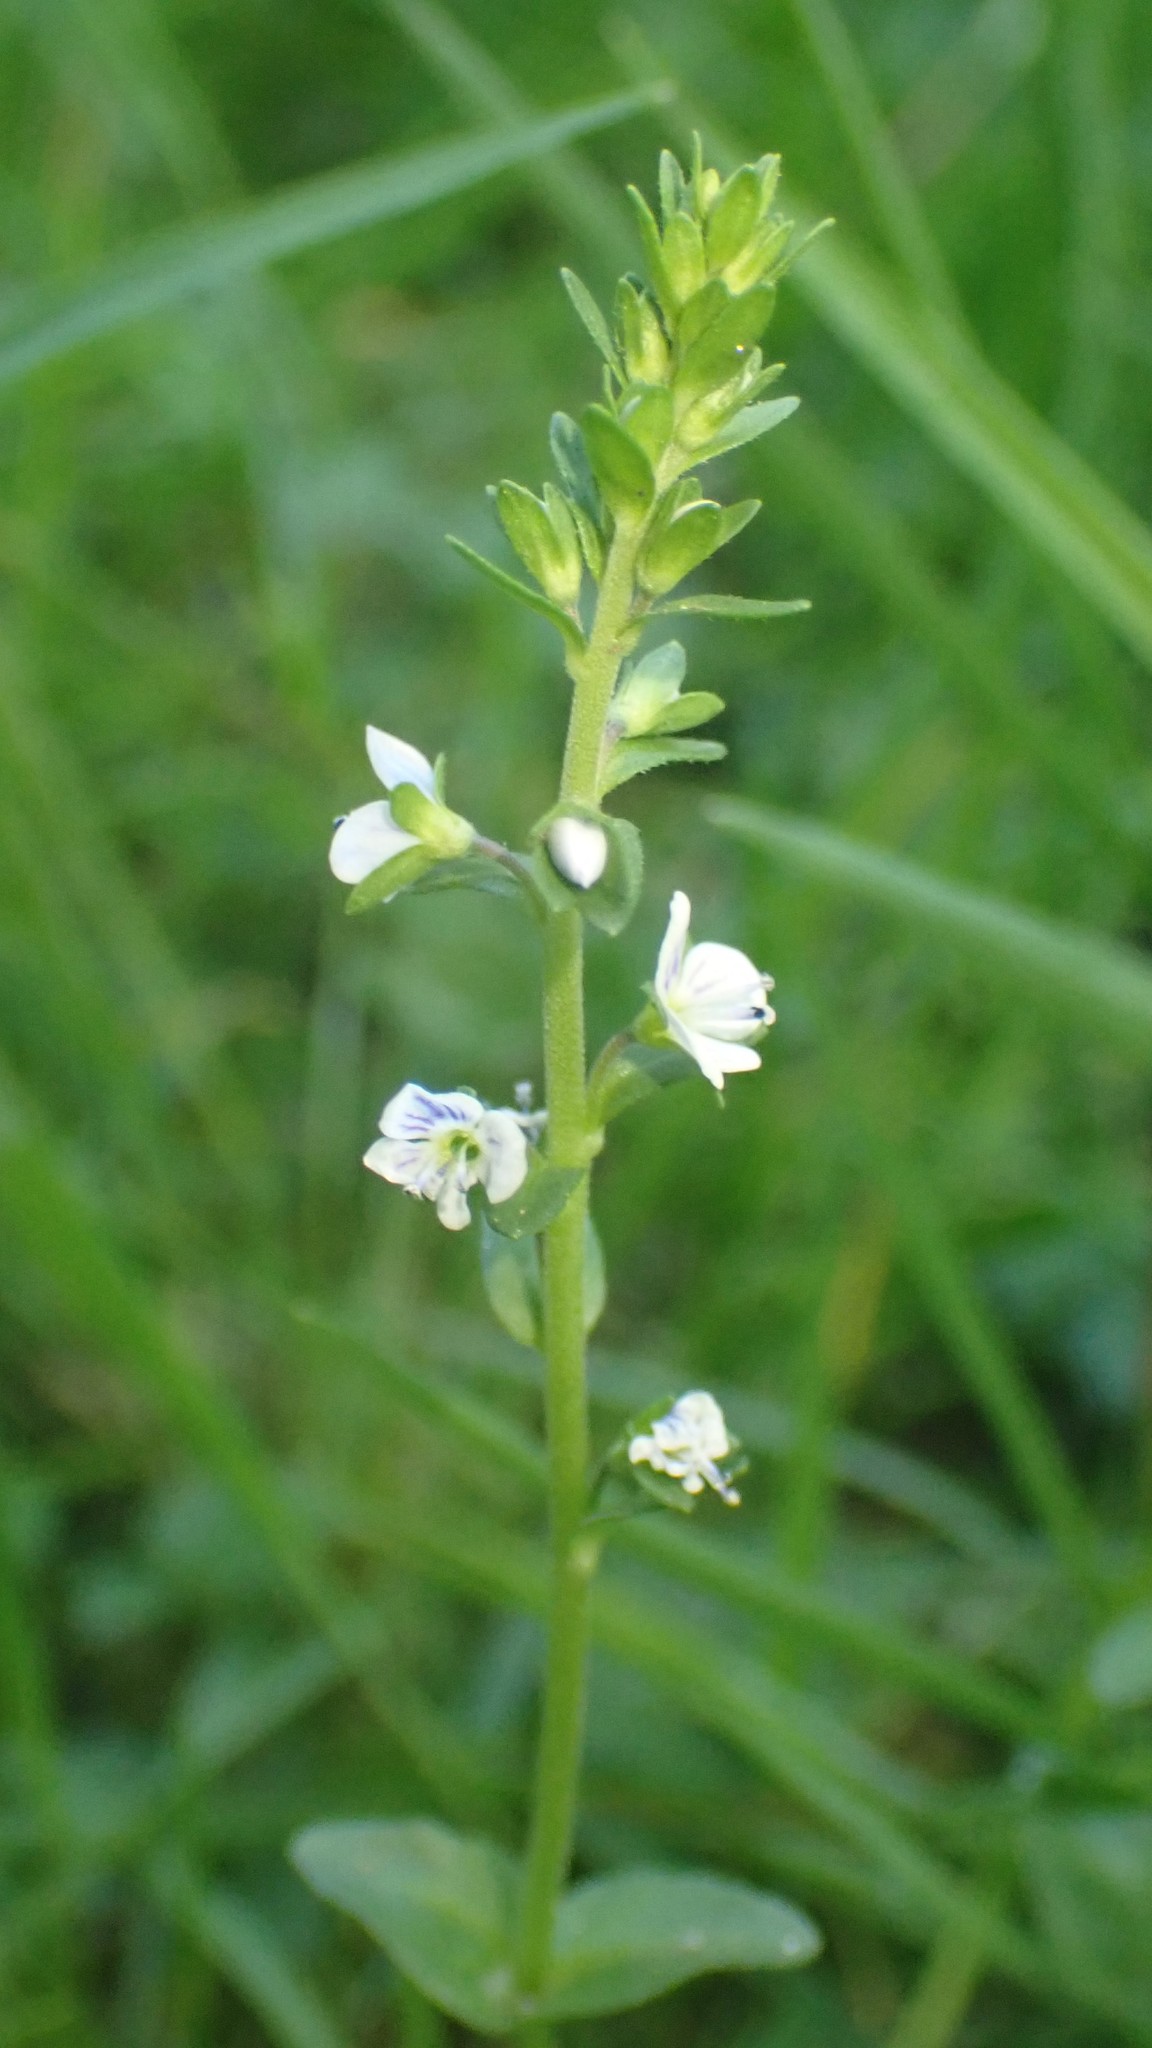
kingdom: Plantae
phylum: Tracheophyta
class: Magnoliopsida
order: Lamiales
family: Plantaginaceae
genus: Veronica
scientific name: Veronica serpyllifolia
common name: Thyme-leaved speedwell
